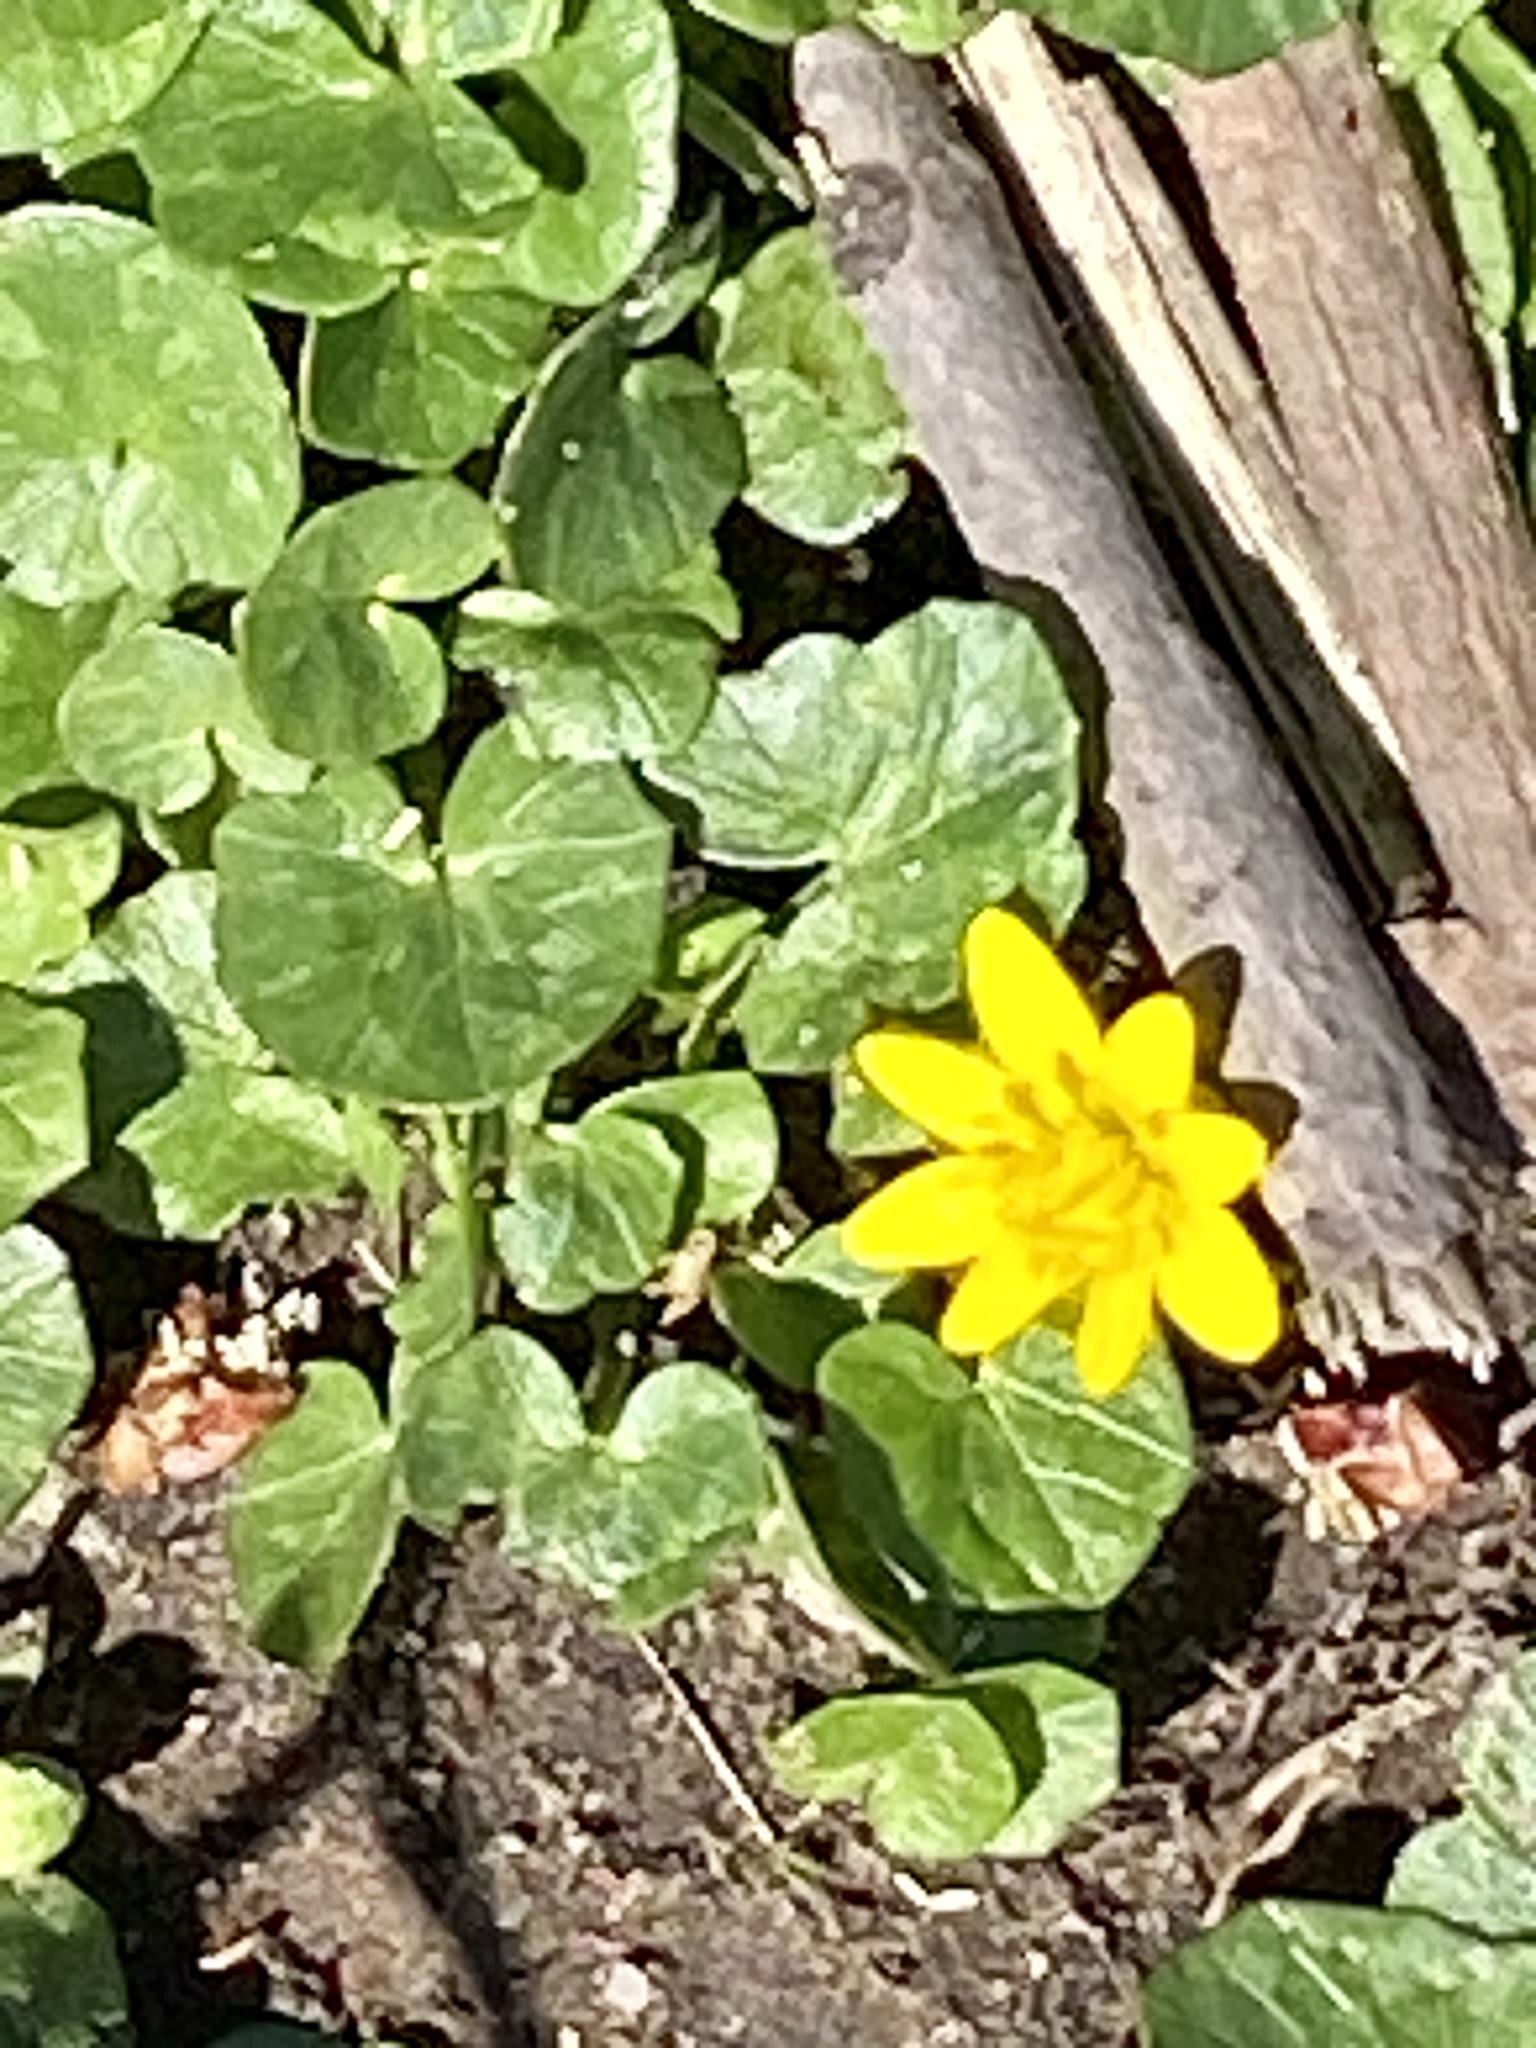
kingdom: Plantae
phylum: Tracheophyta
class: Magnoliopsida
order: Ranunculales
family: Ranunculaceae
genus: Ficaria
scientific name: Ficaria verna
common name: Lesser celandine
